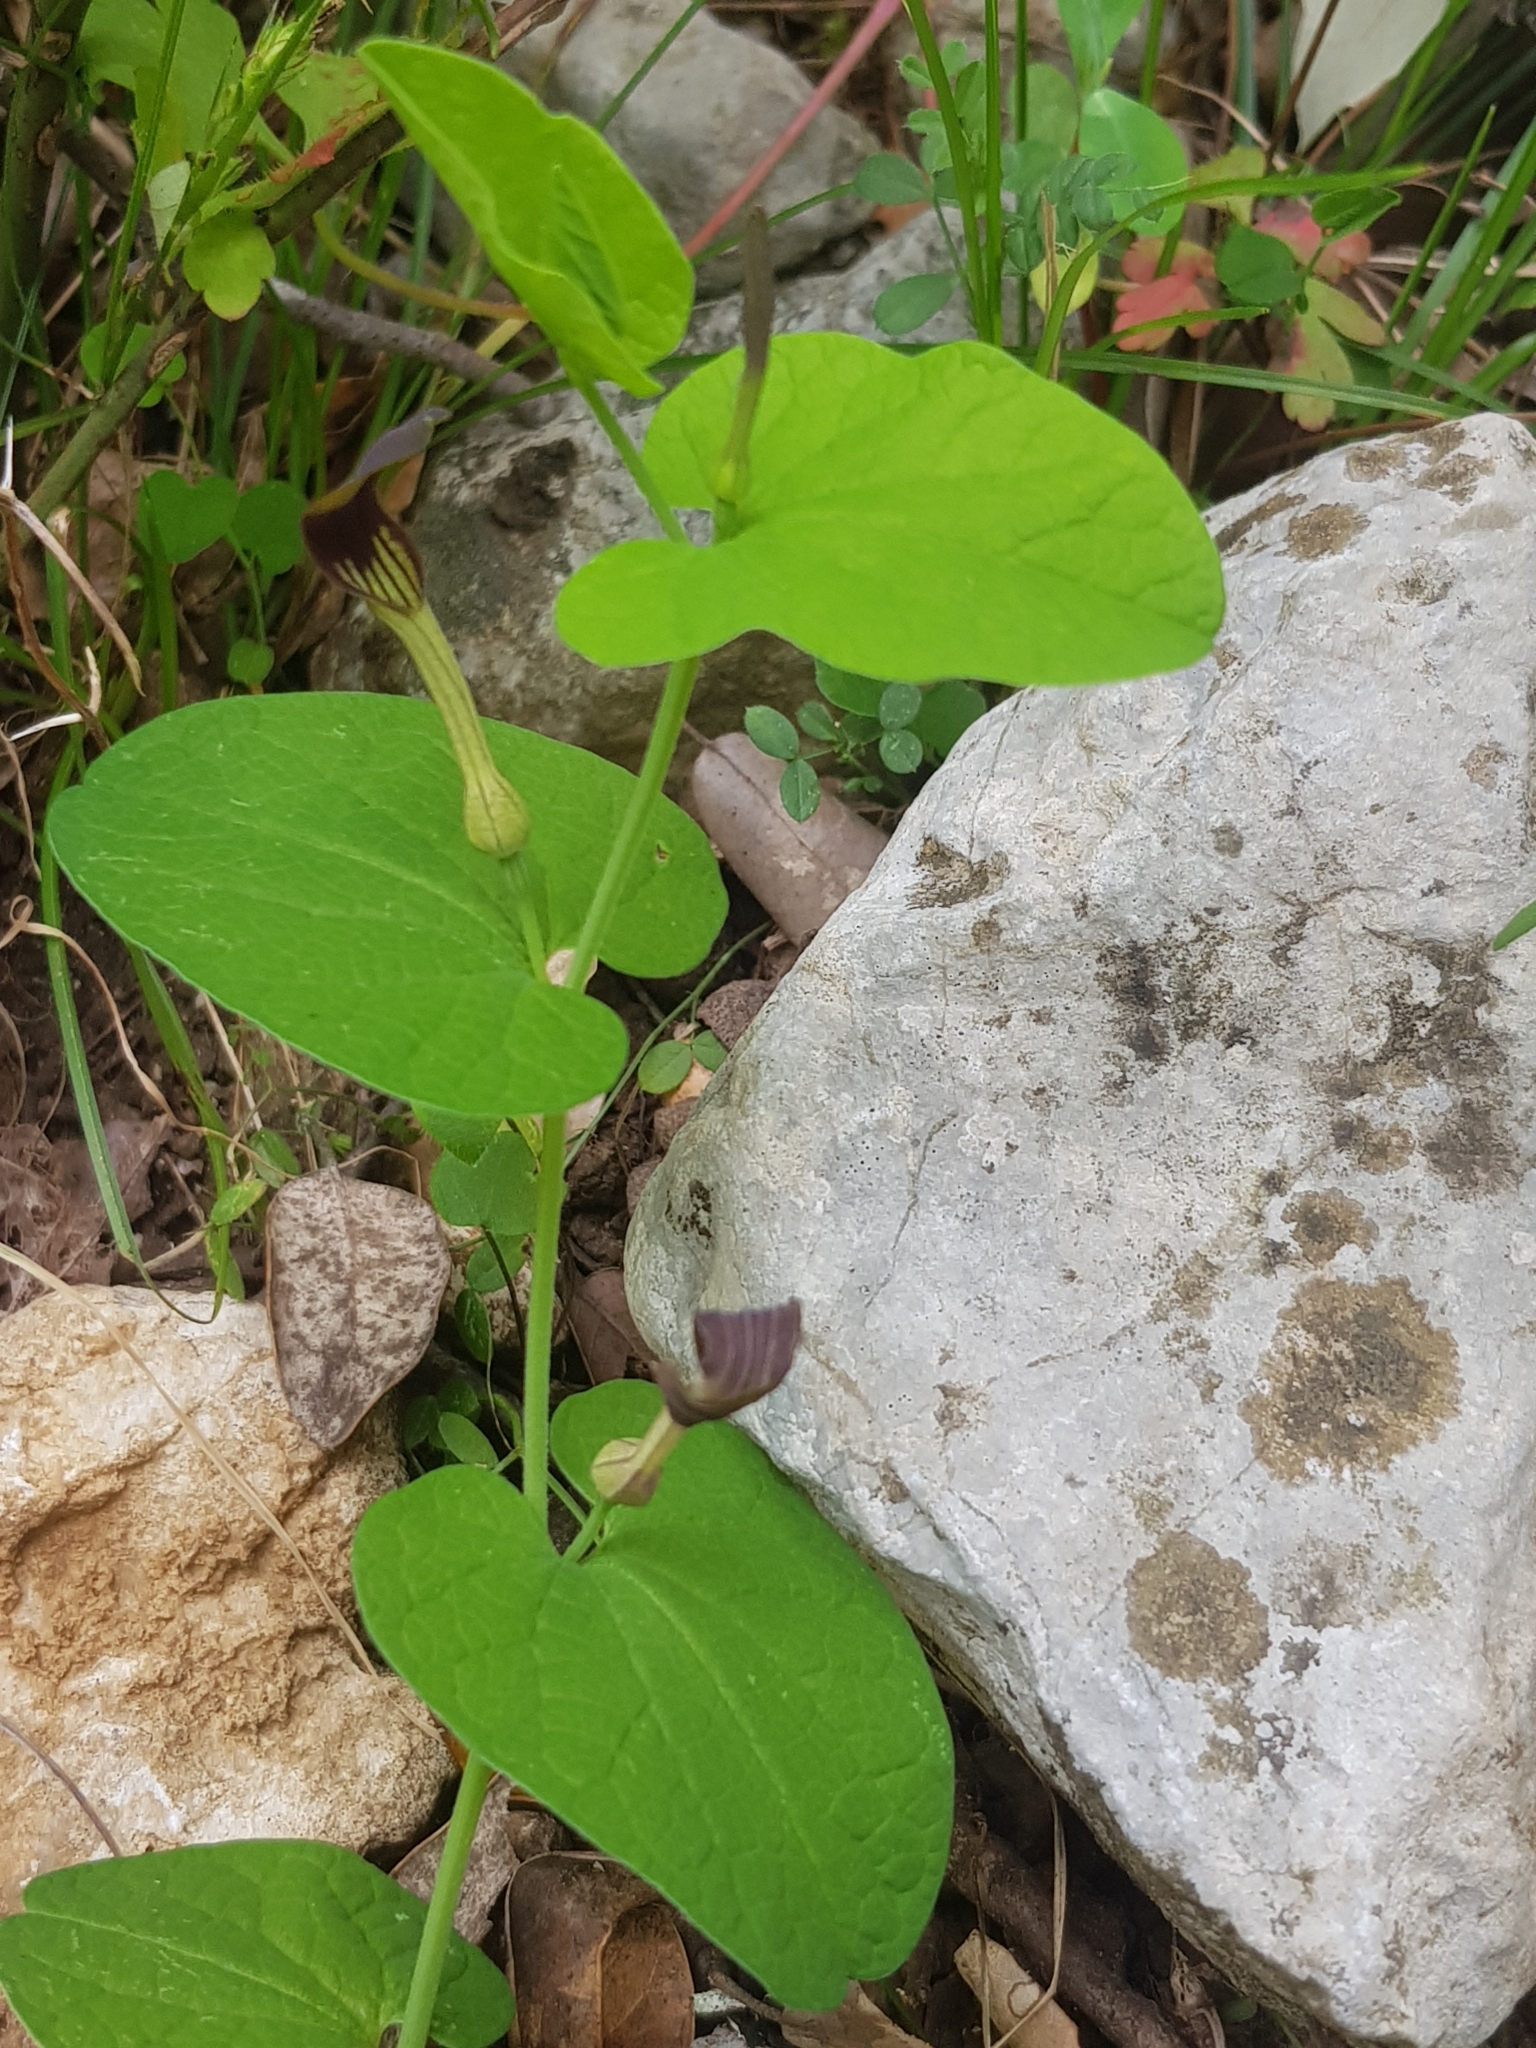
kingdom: Plantae
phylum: Tracheophyta
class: Magnoliopsida
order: Piperales
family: Aristolochiaceae
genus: Aristolochia
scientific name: Aristolochia rotunda
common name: Smearwort
